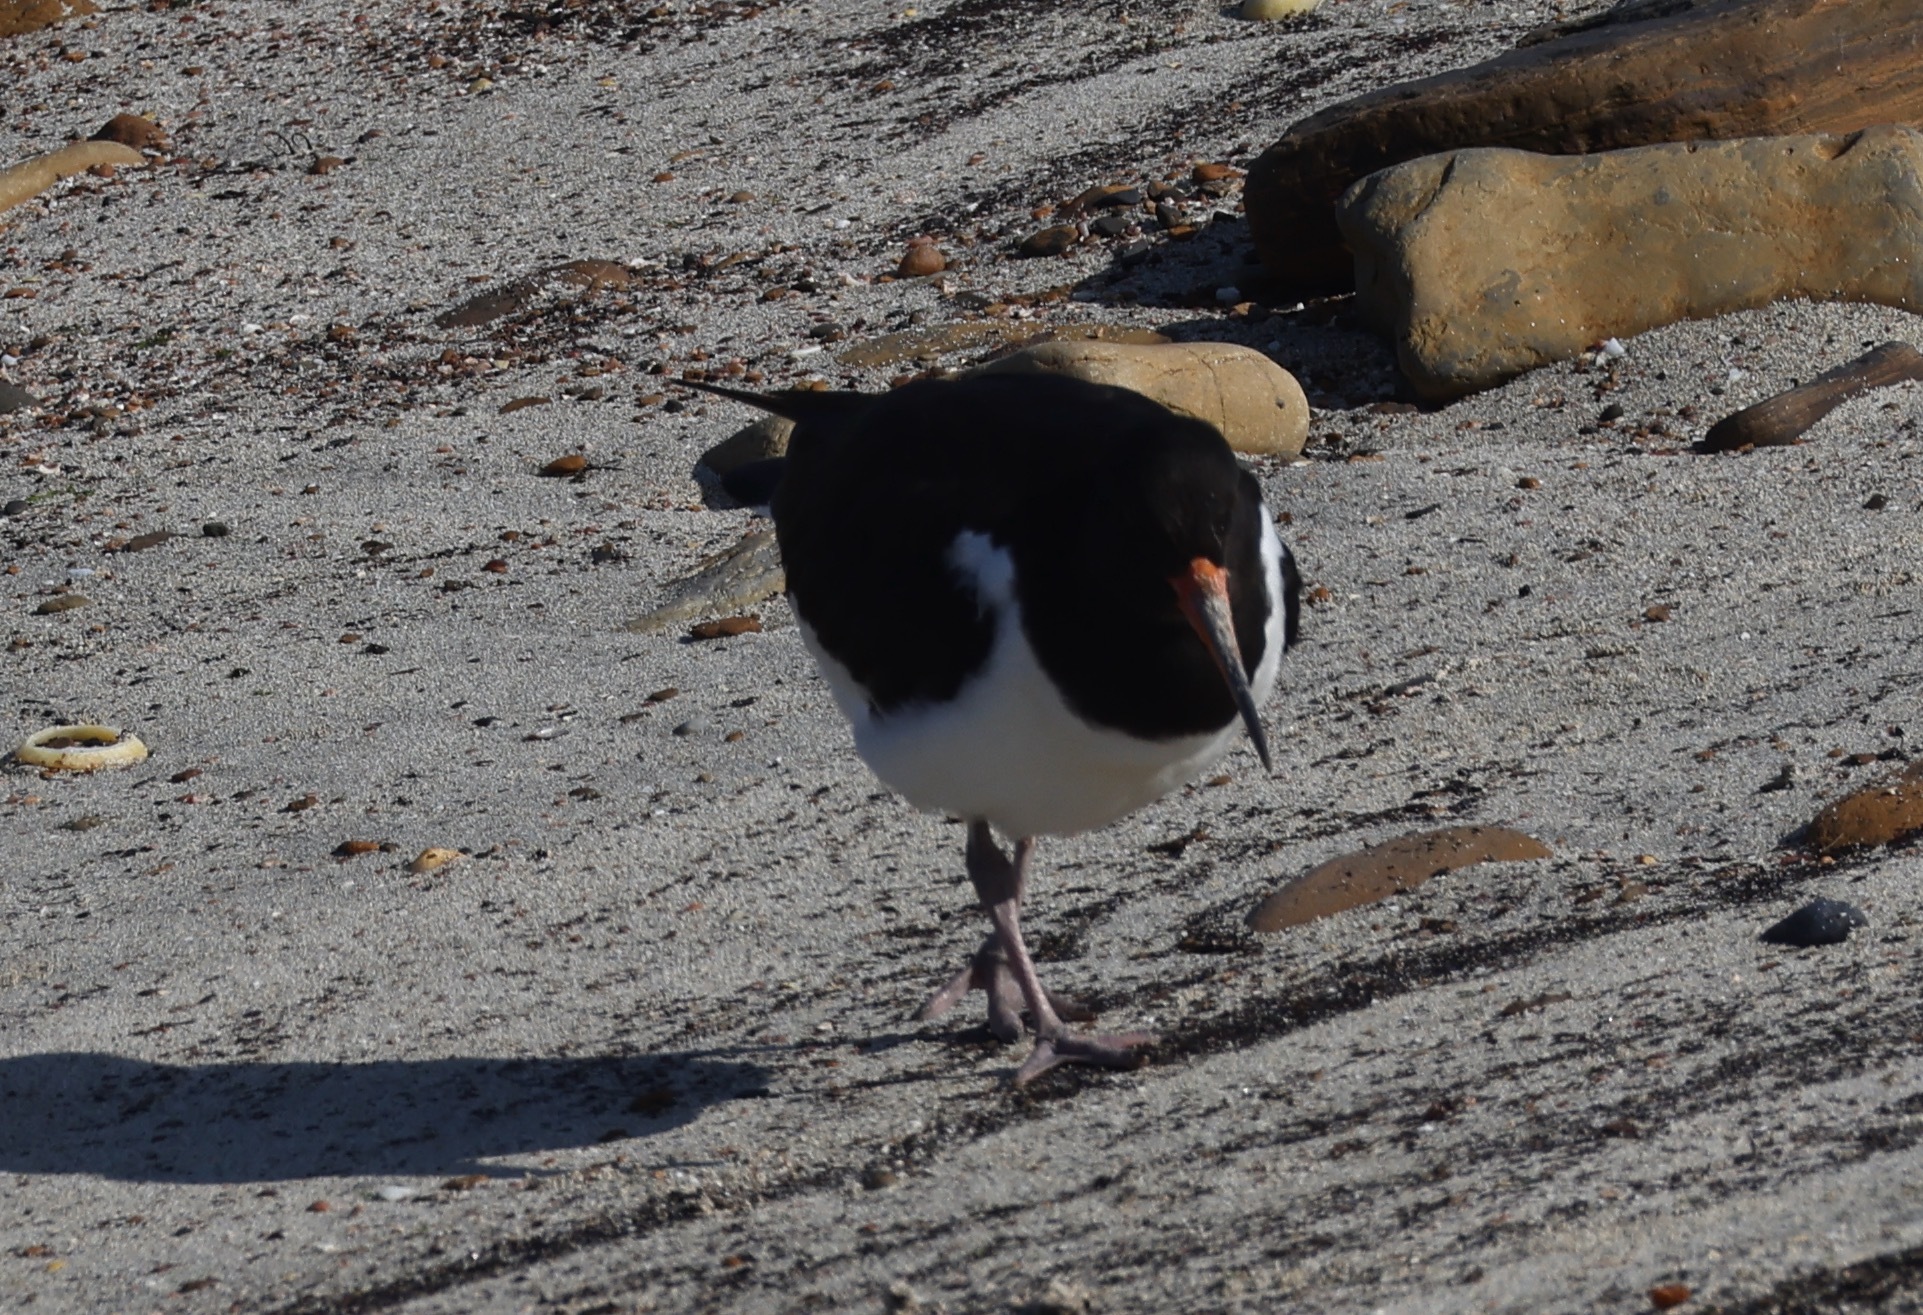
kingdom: Animalia
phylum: Chordata
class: Aves
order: Charadriiformes
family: Haematopodidae
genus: Haematopus
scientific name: Haematopus ostralegus
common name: Eurasian oystercatcher
